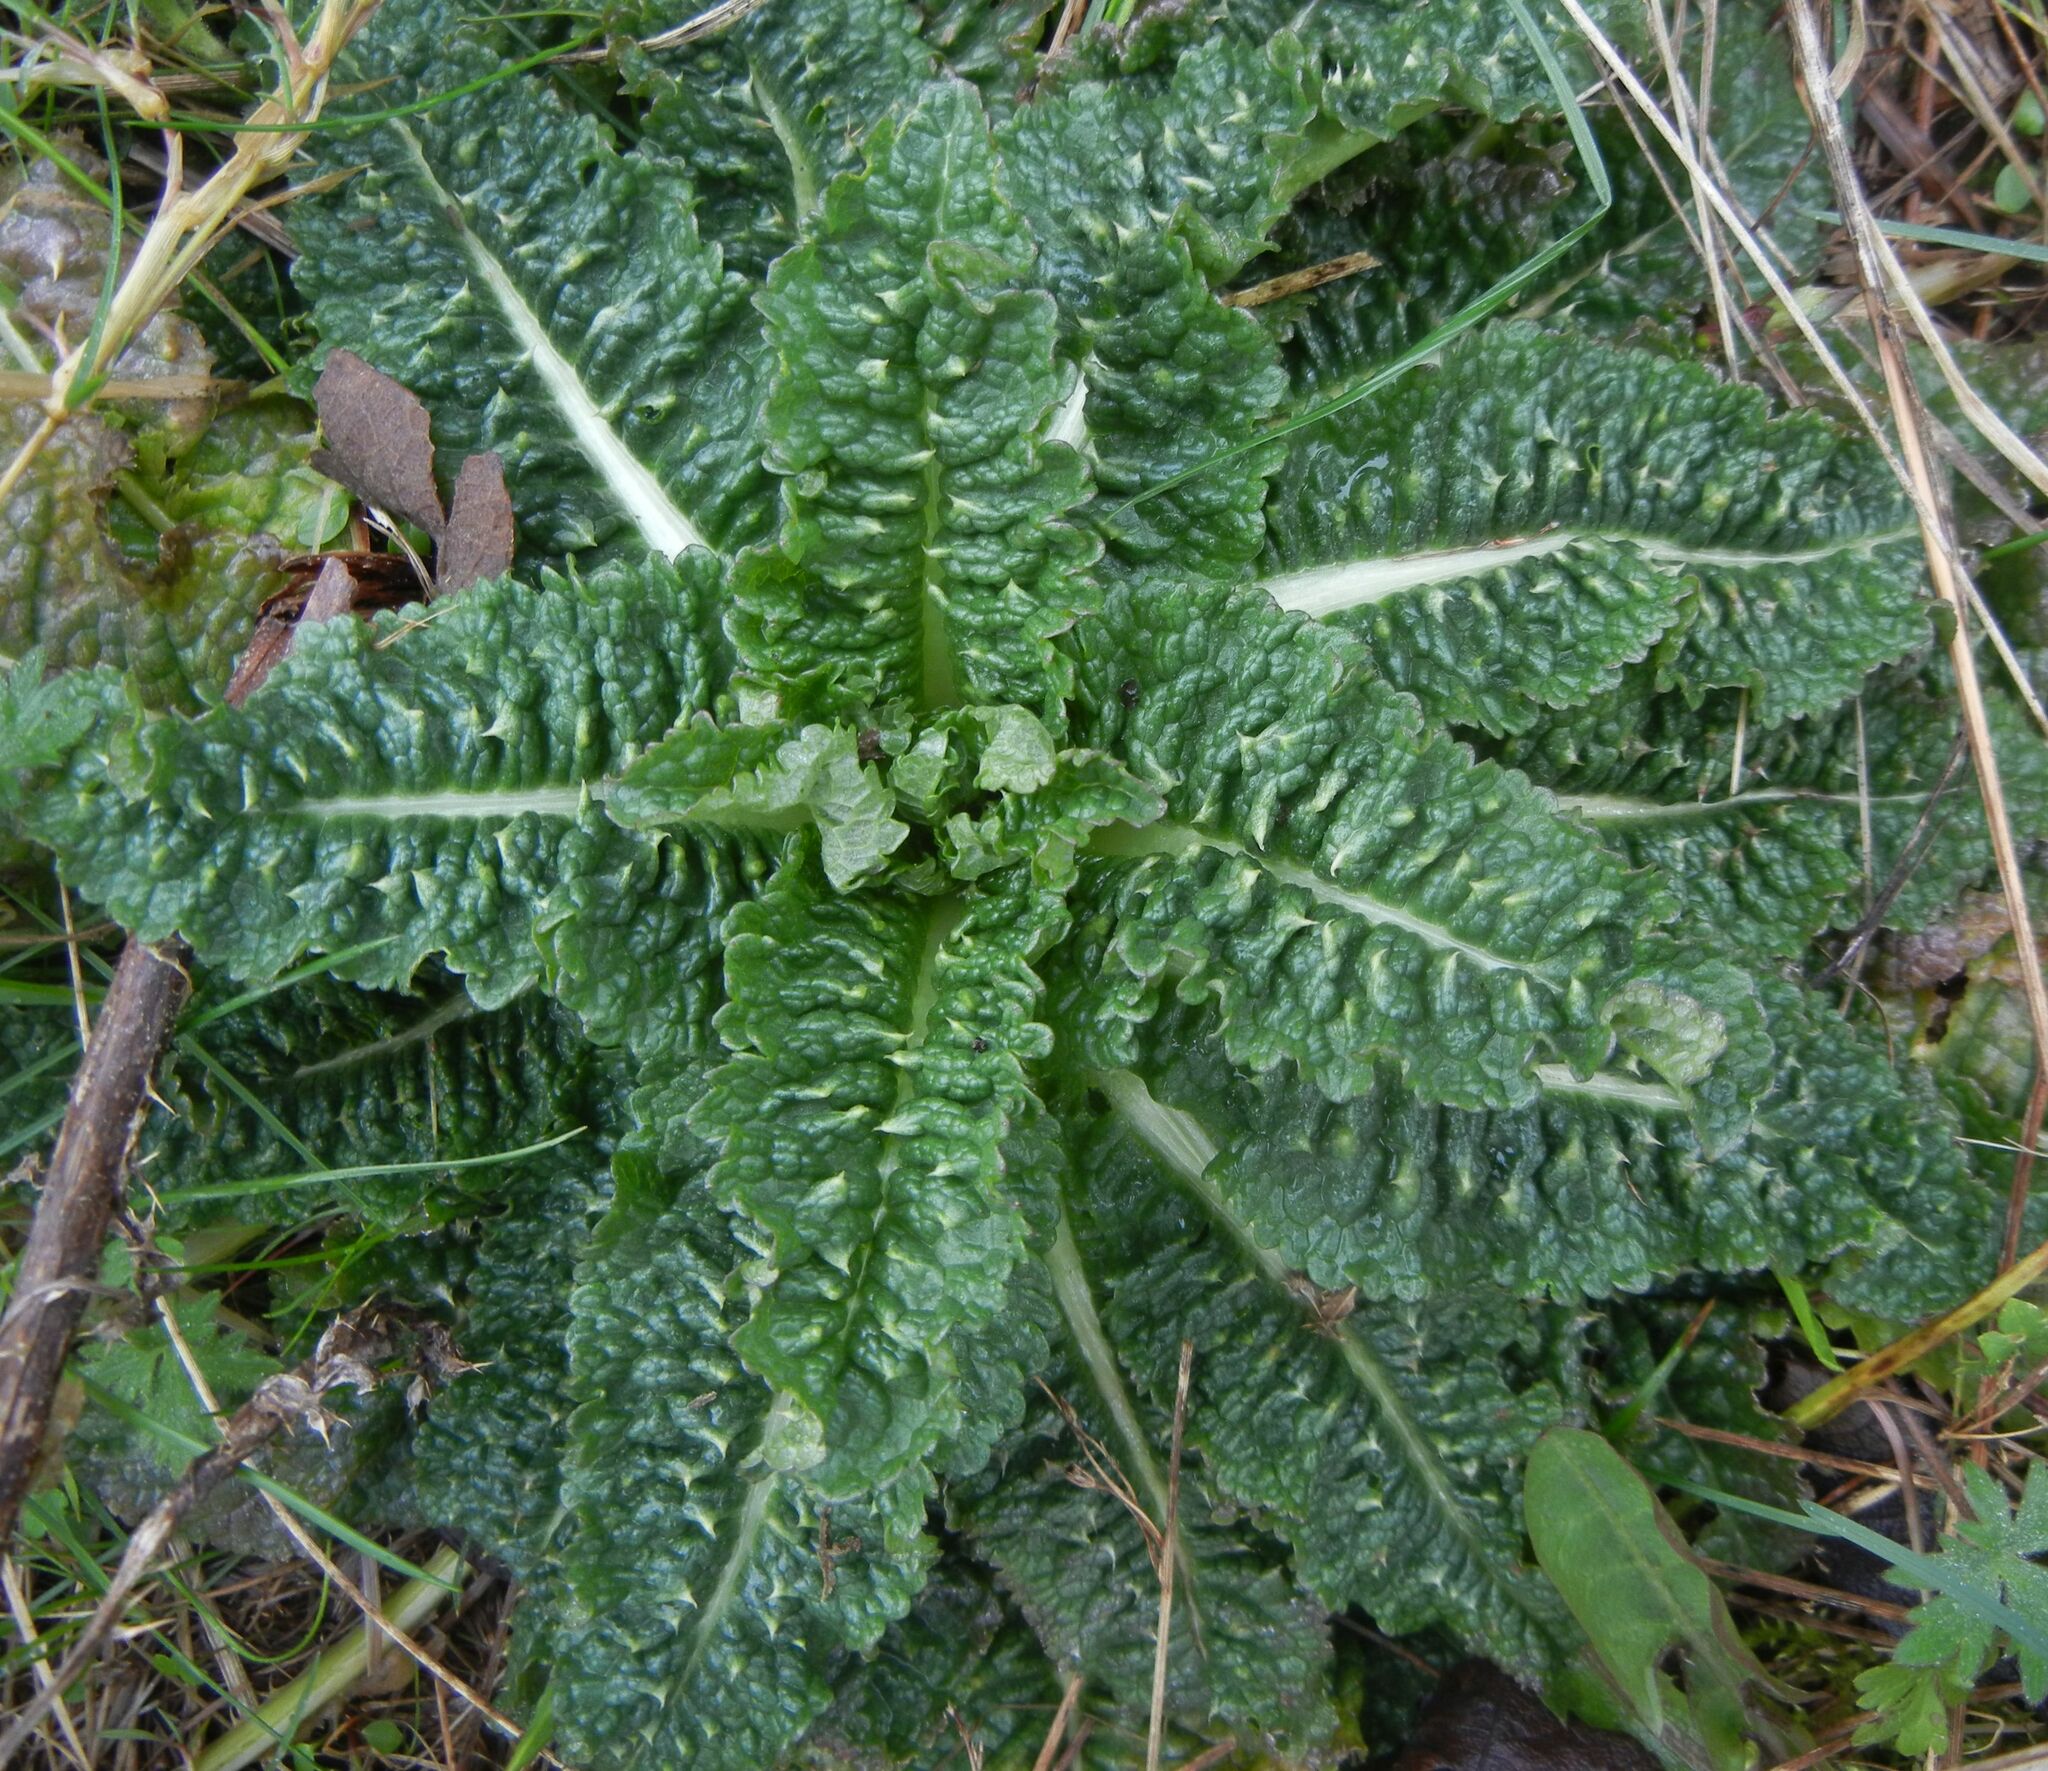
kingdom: Plantae
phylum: Tracheophyta
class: Magnoliopsida
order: Dipsacales
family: Caprifoliaceae
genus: Dipsacus
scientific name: Dipsacus fullonum
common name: Teasel
